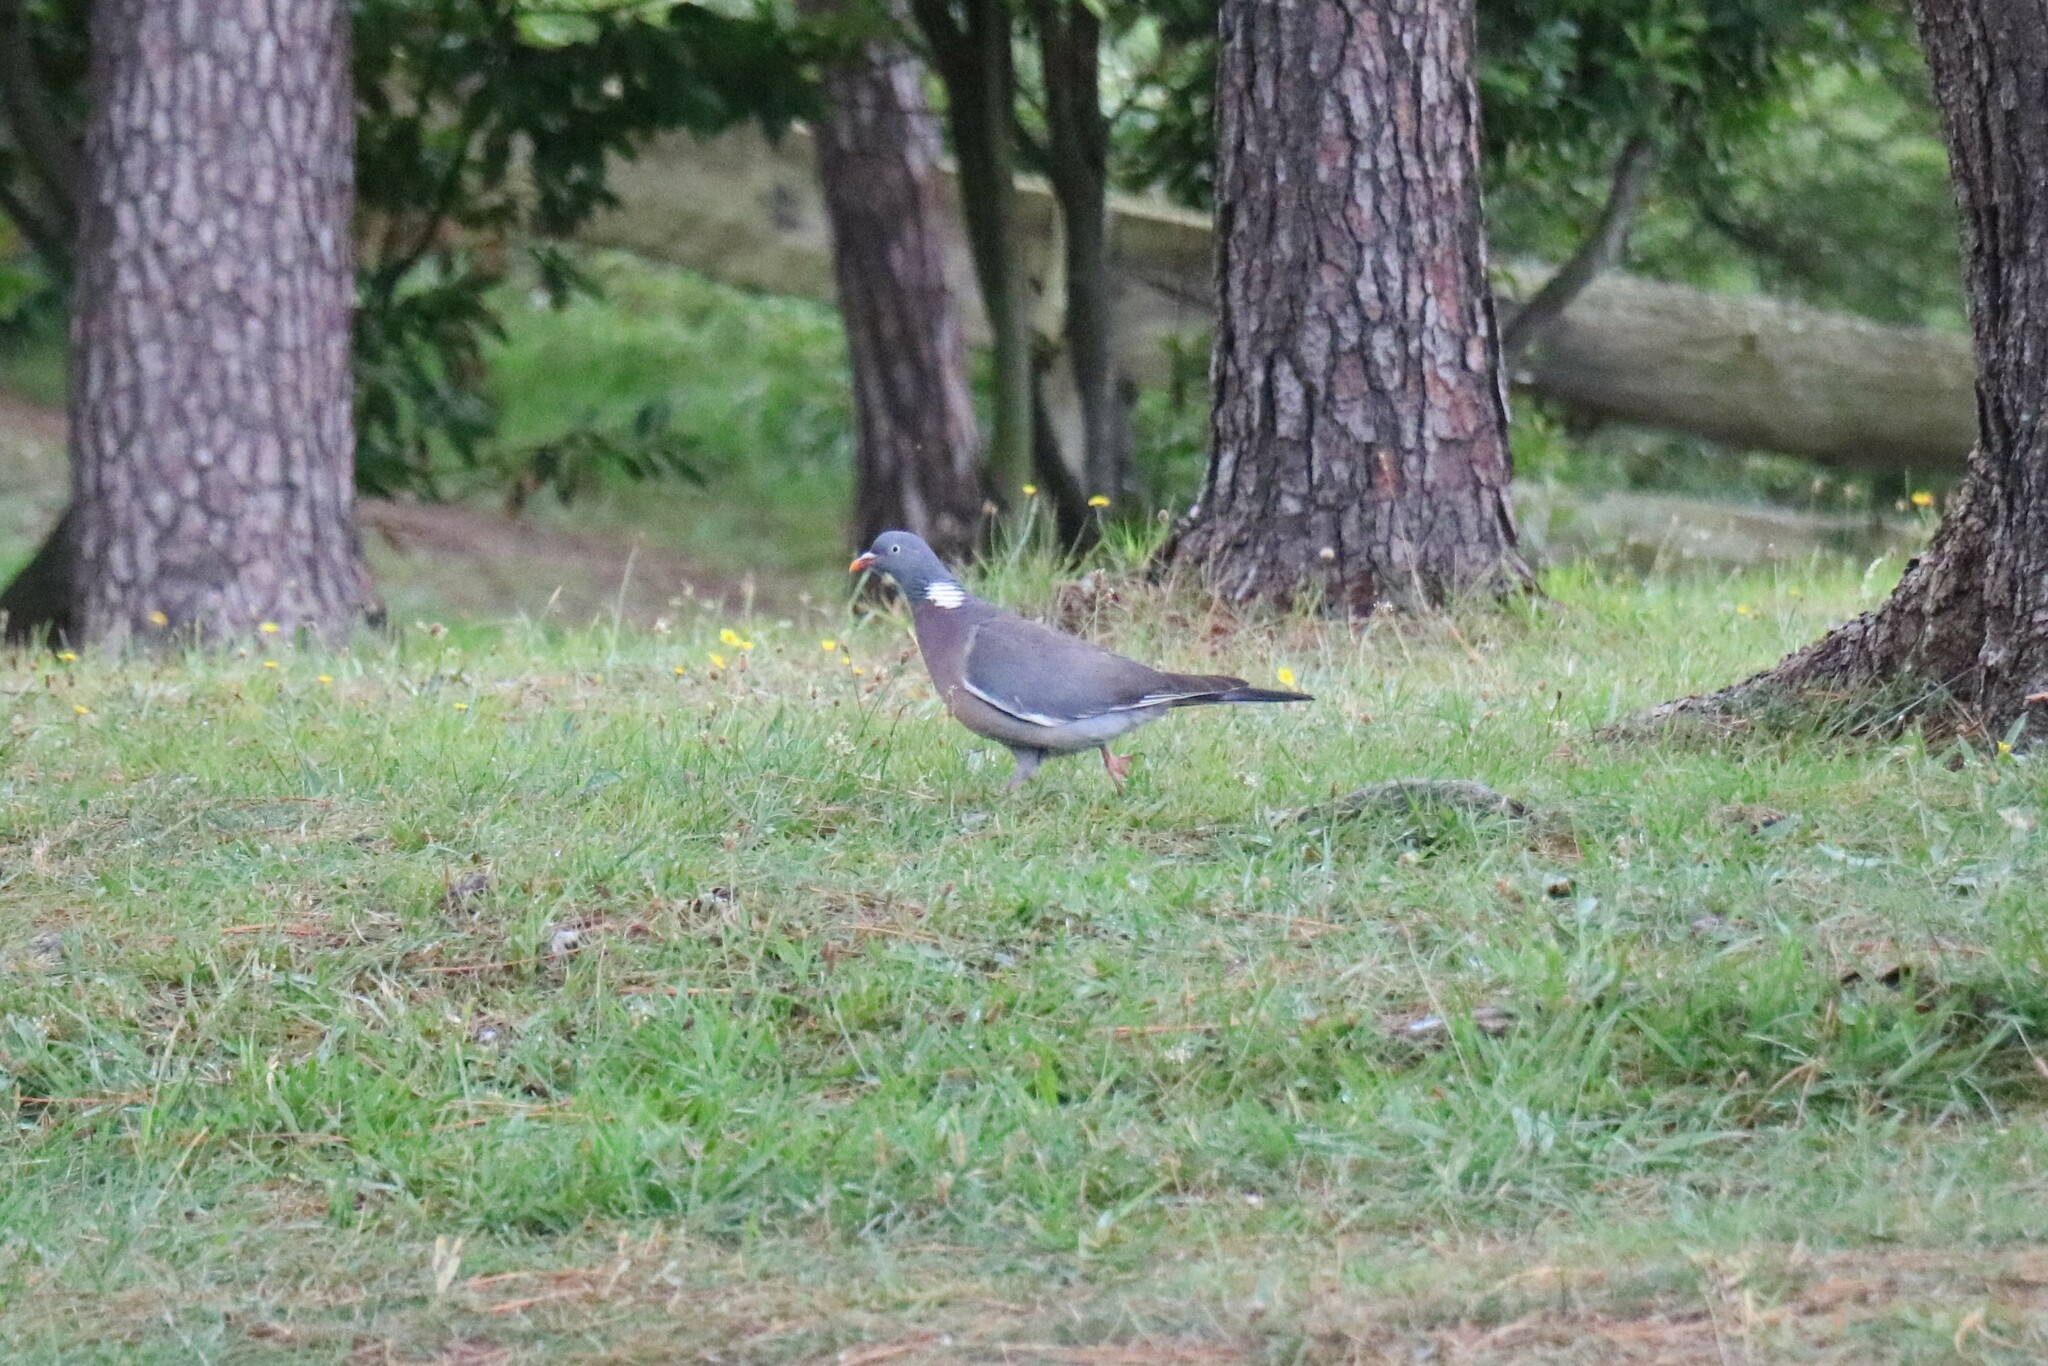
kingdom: Animalia
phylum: Chordata
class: Aves
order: Columbiformes
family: Columbidae
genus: Columba
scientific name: Columba palumbus
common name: Common wood pigeon
